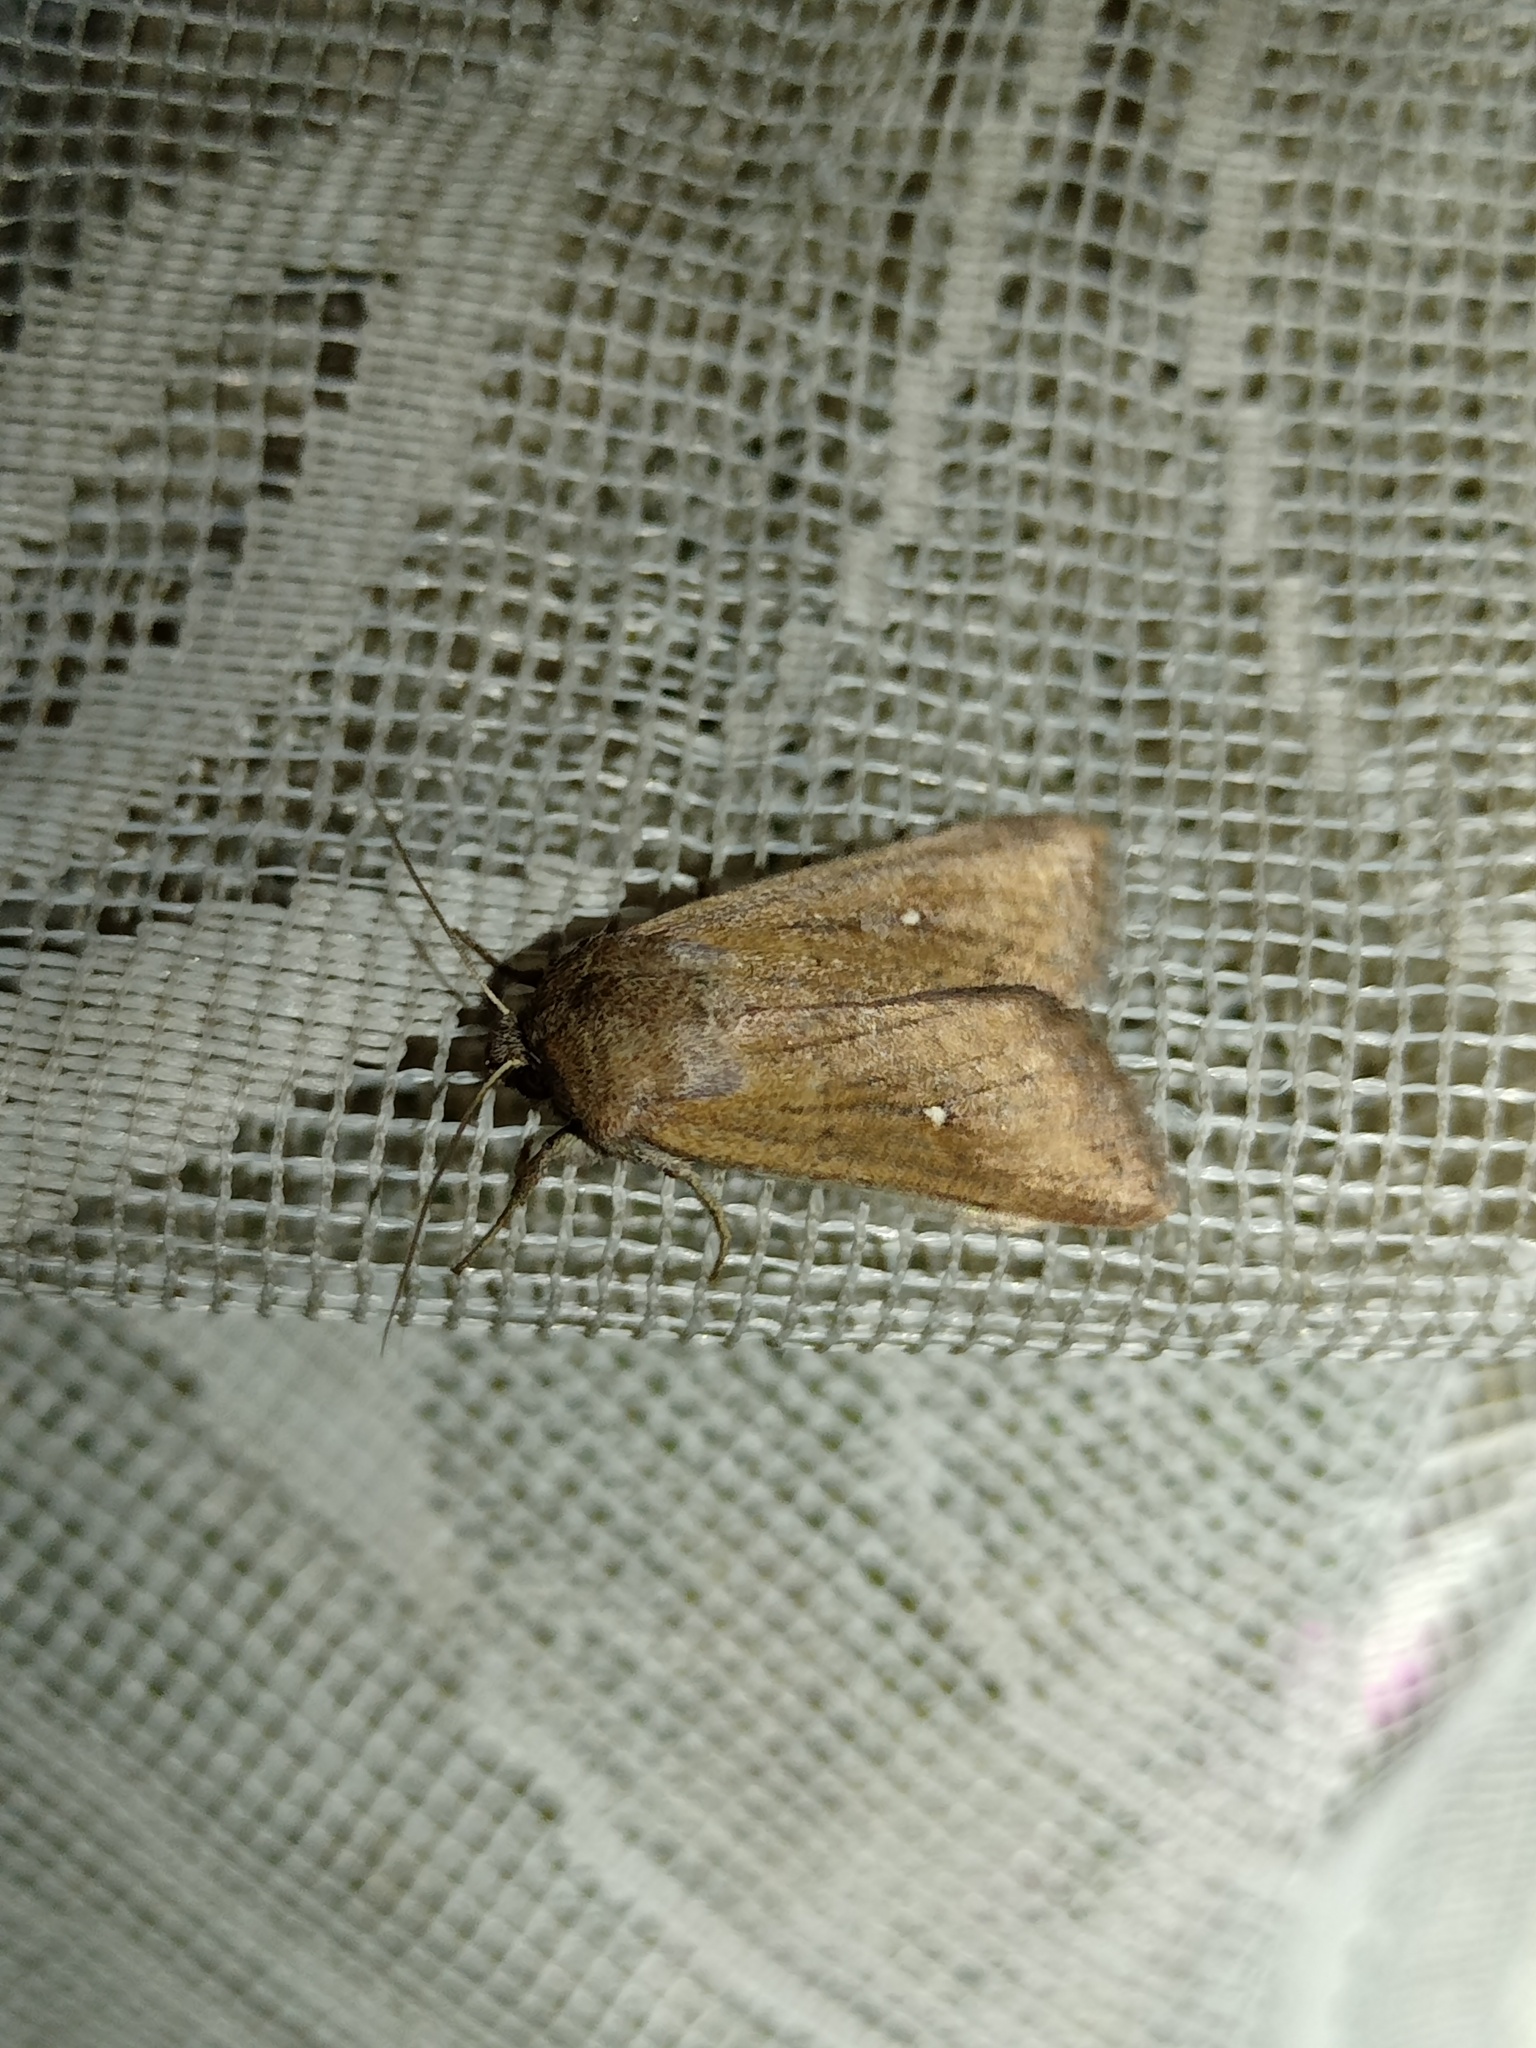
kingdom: Animalia
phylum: Arthropoda
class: Insecta
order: Lepidoptera
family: Noctuidae
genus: Mythimna
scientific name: Mythimna albipuncta
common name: White-point
